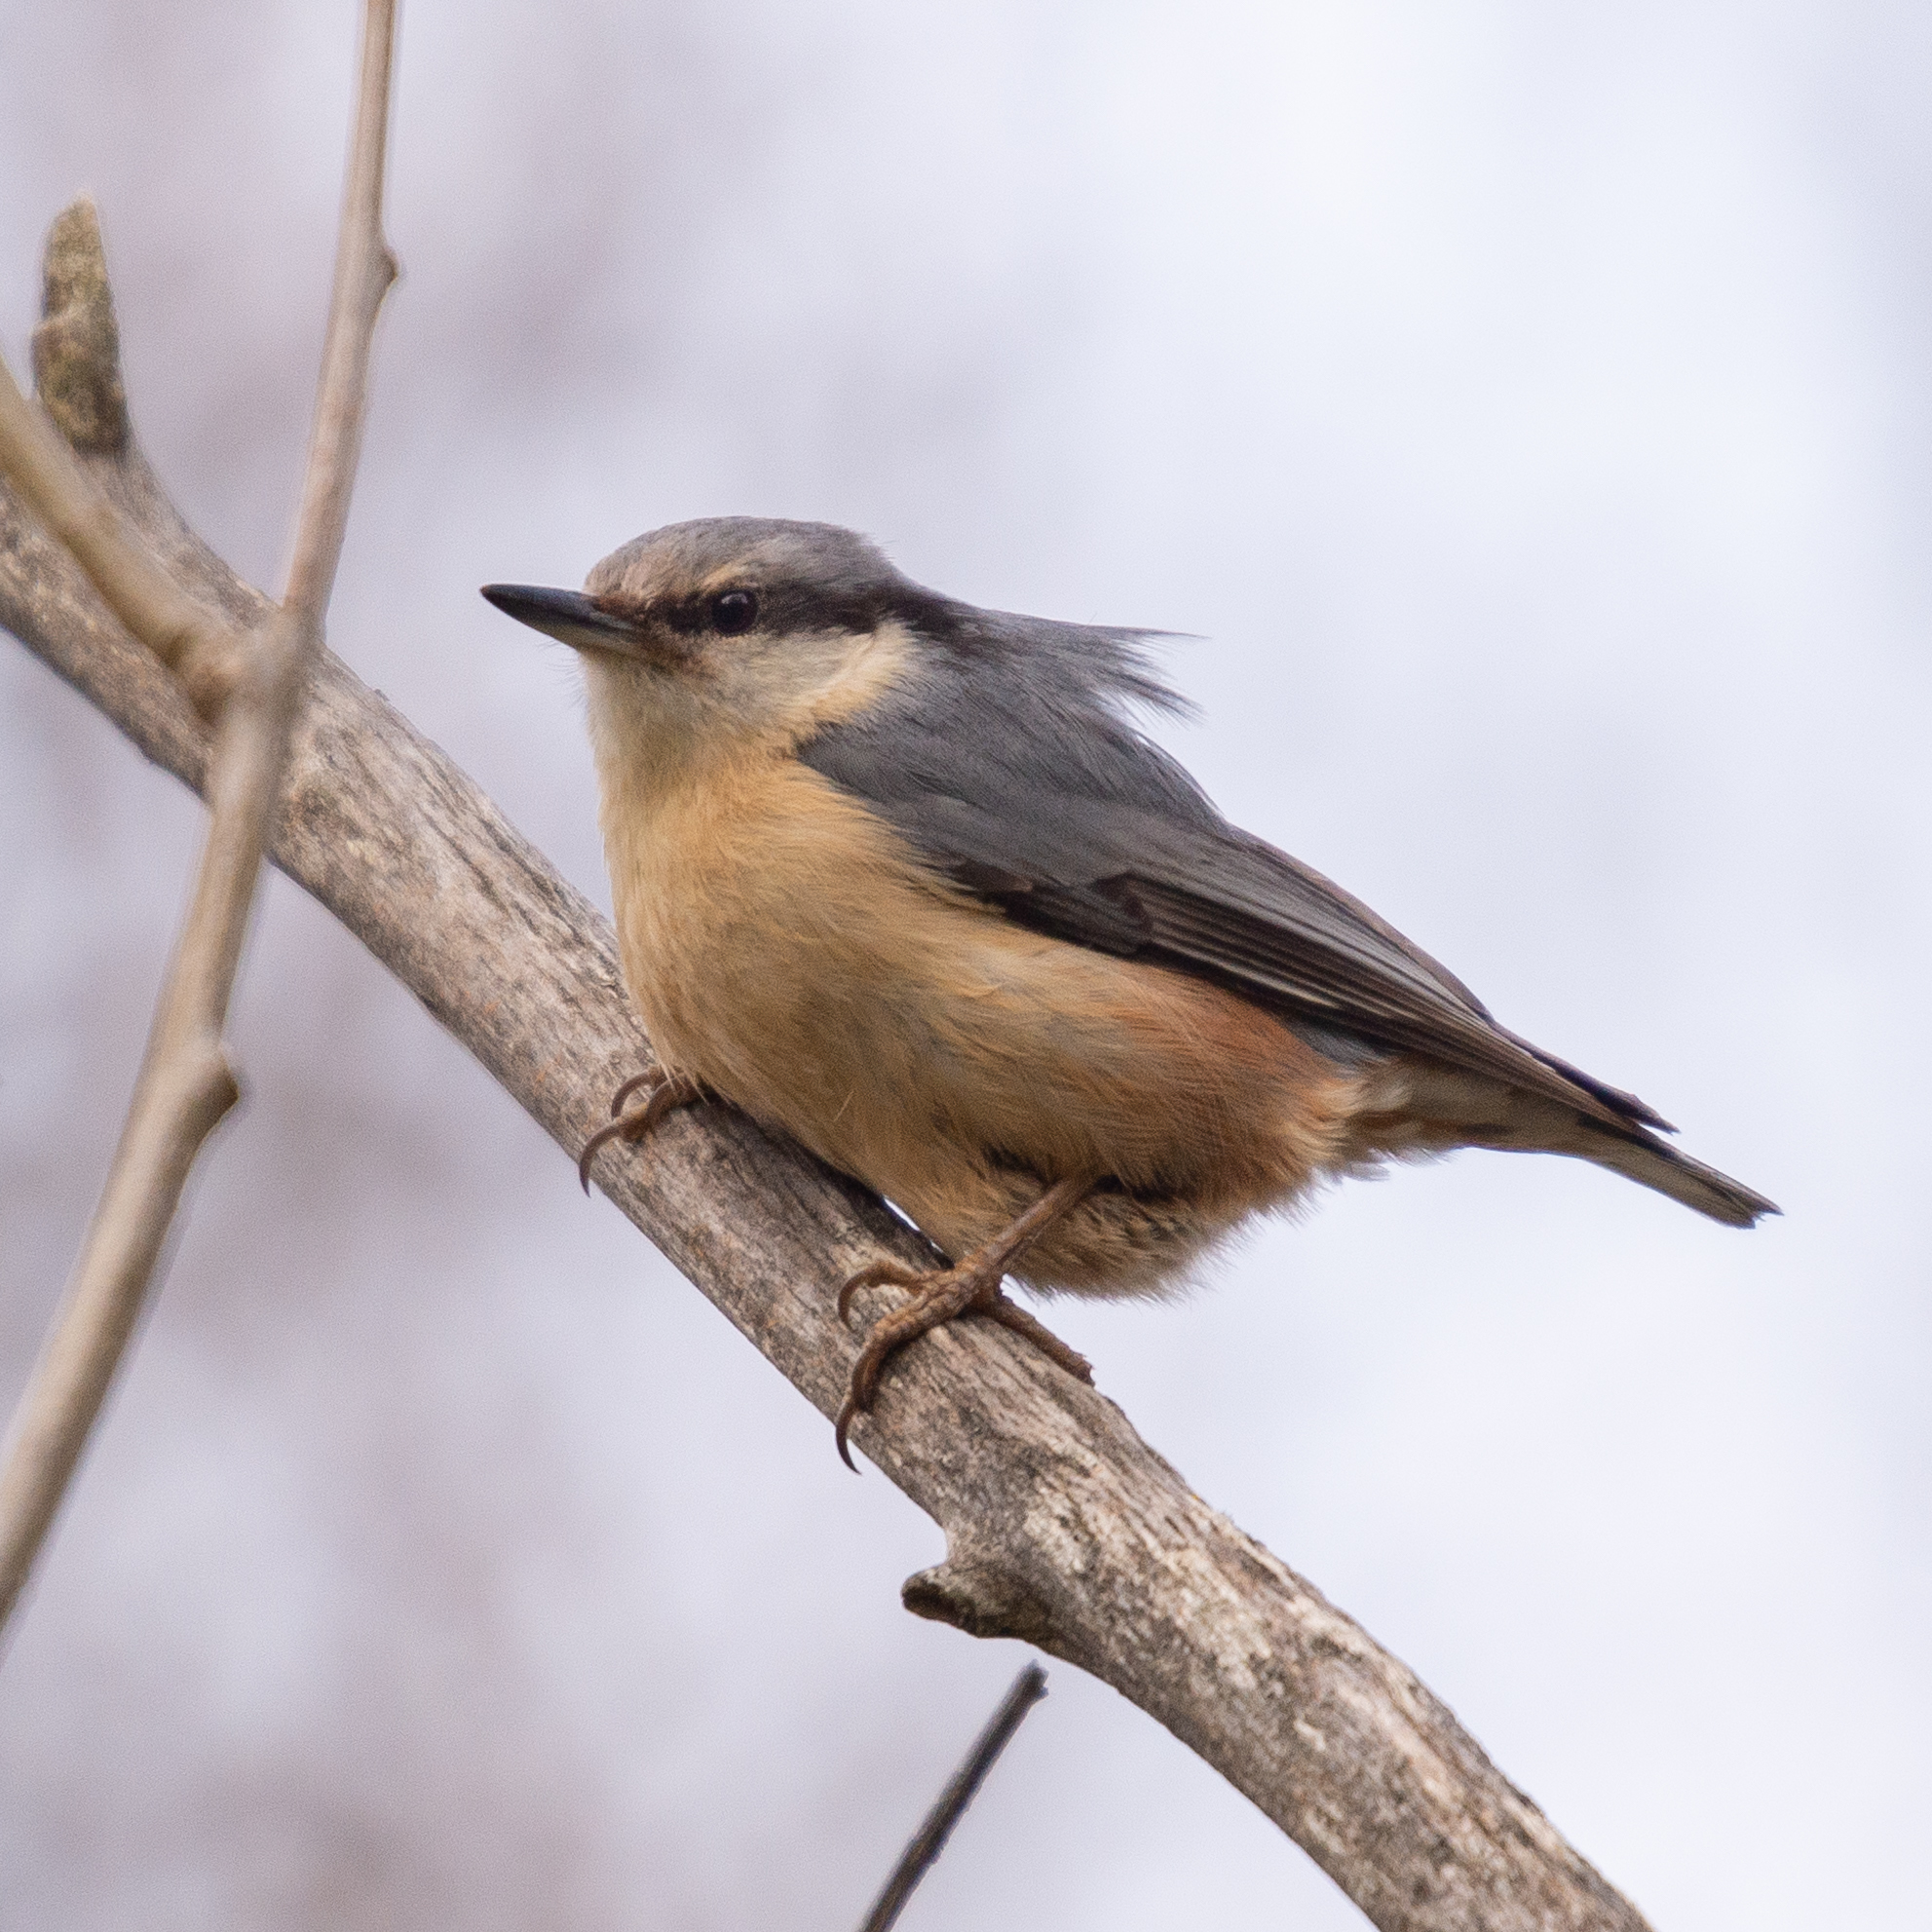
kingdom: Animalia
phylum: Chordata
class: Aves
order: Passeriformes
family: Sittidae
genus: Sitta
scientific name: Sitta europaea
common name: Eurasian nuthatch
